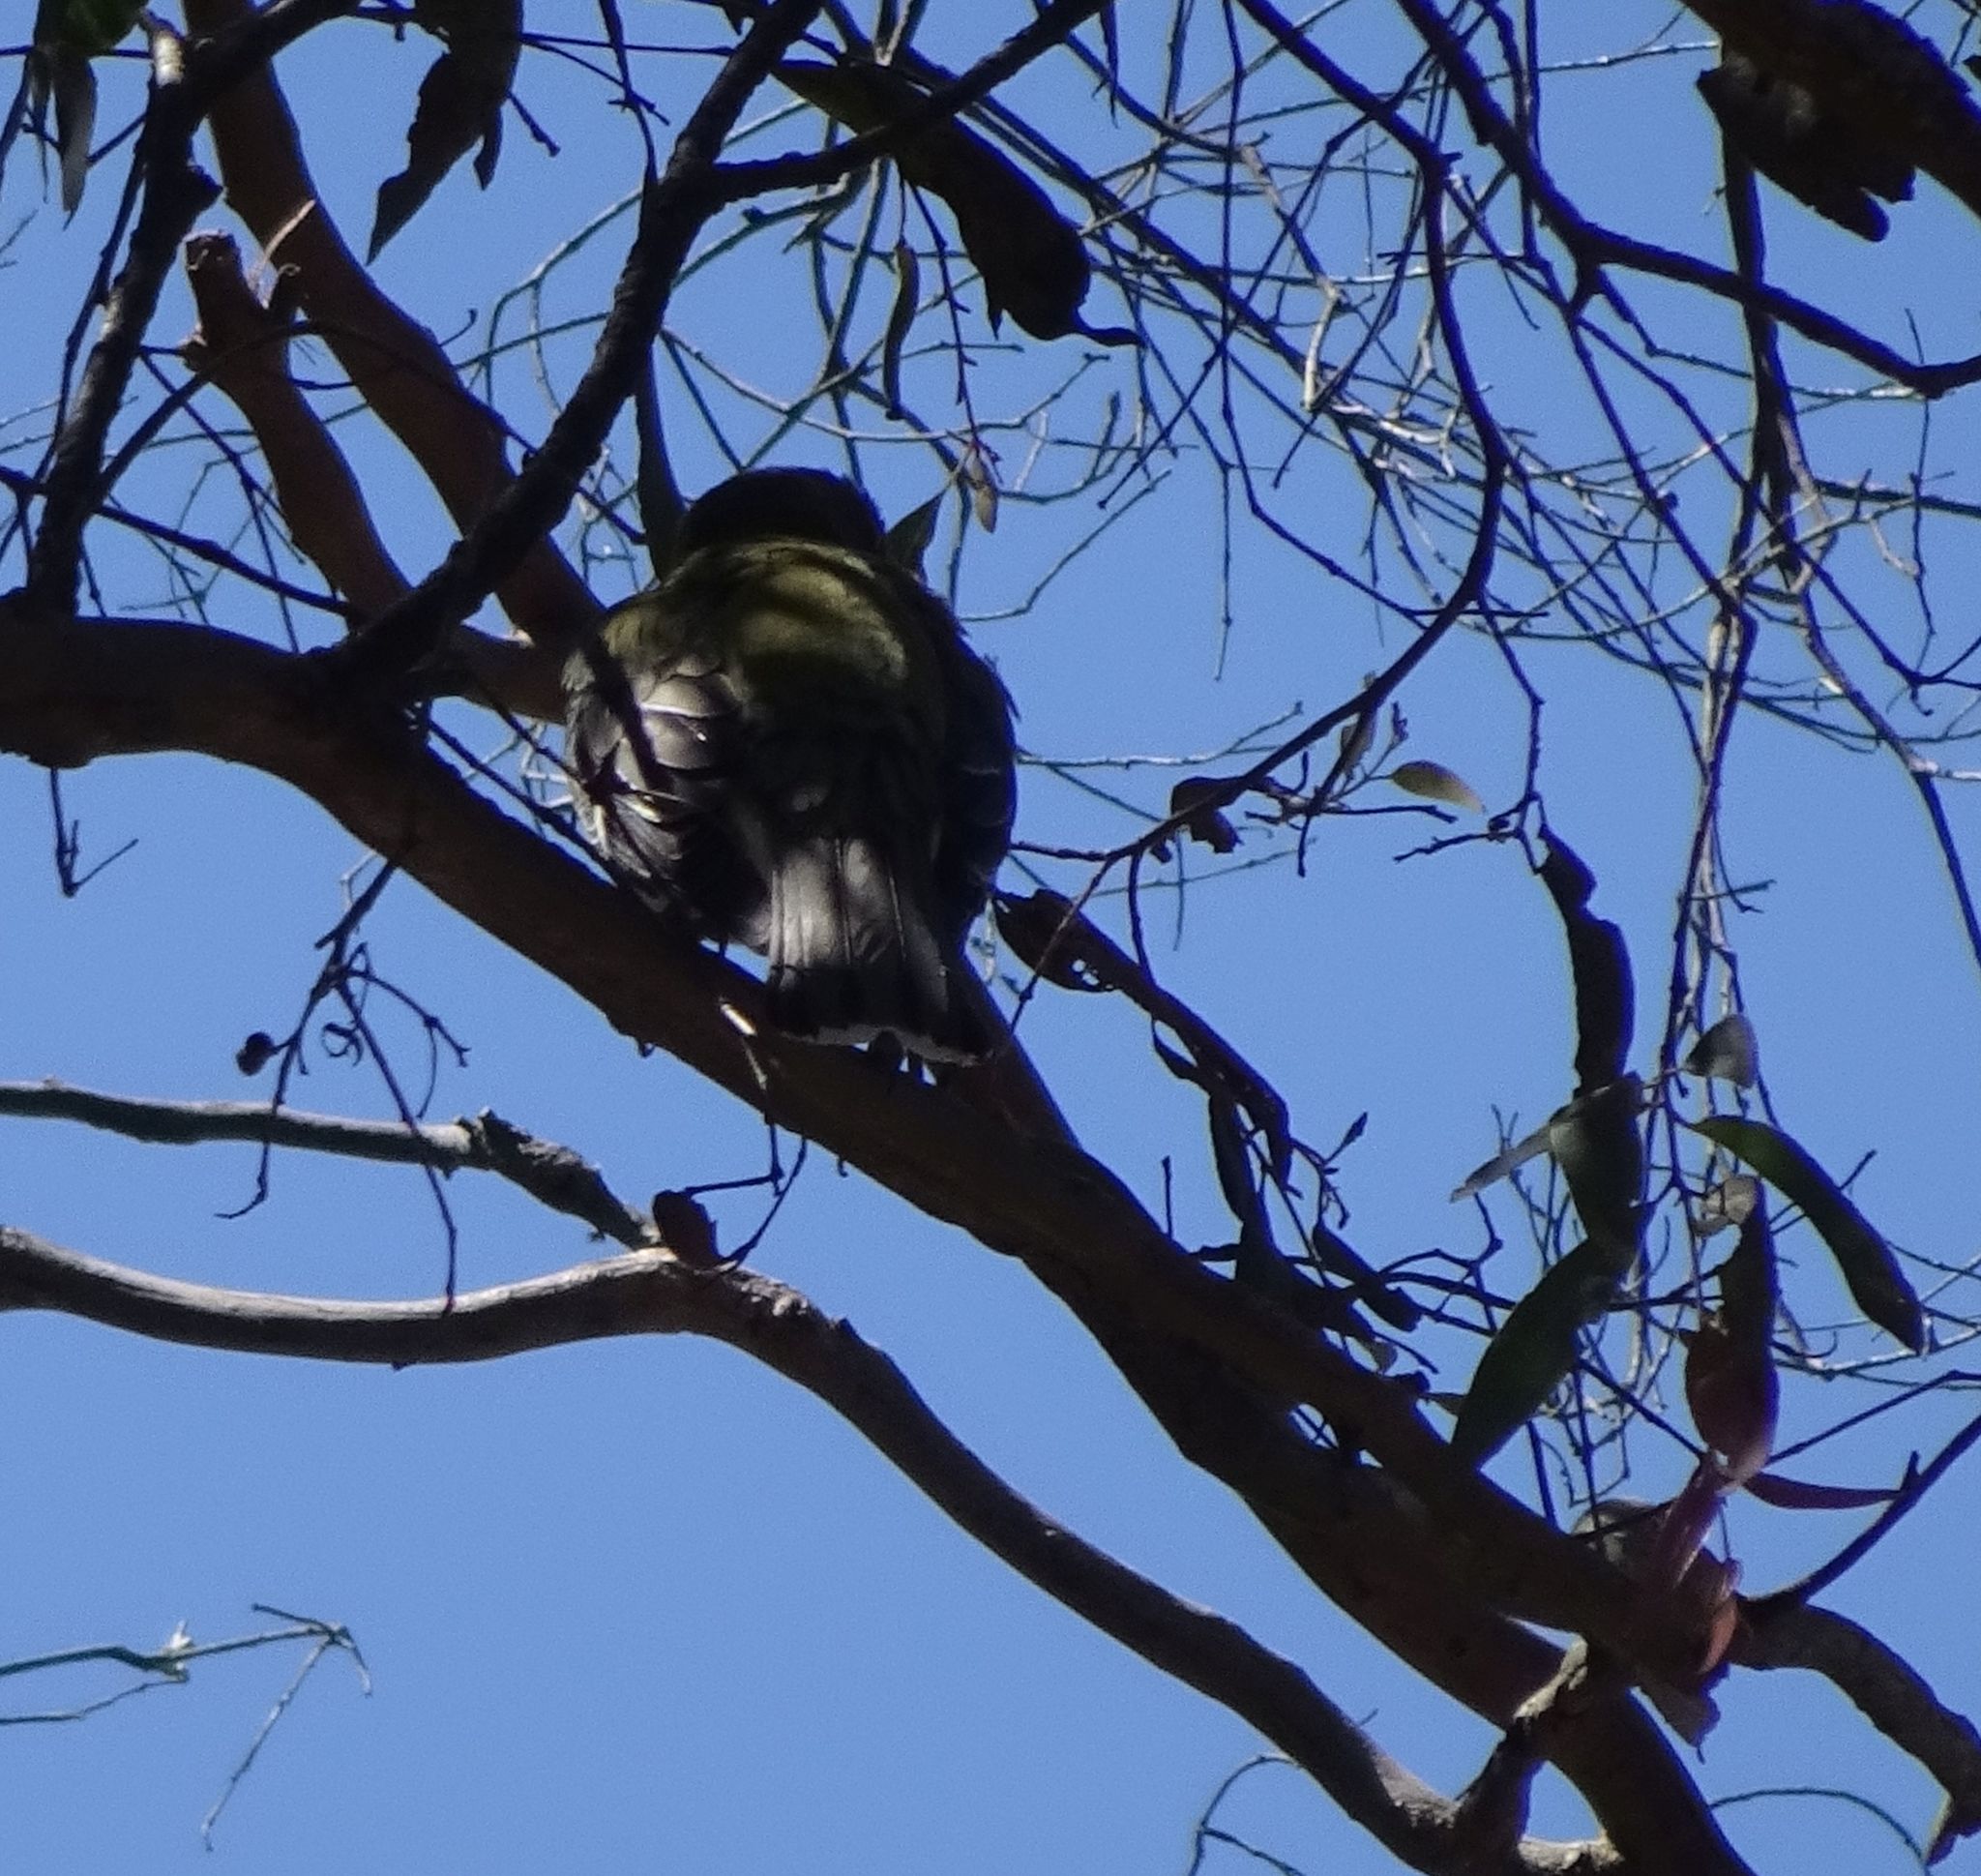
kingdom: Animalia
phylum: Chordata
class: Aves
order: Passeriformes
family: Oriolidae
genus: Oriolus
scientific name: Oriolus sagittatus
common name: Olive-backed oriole
